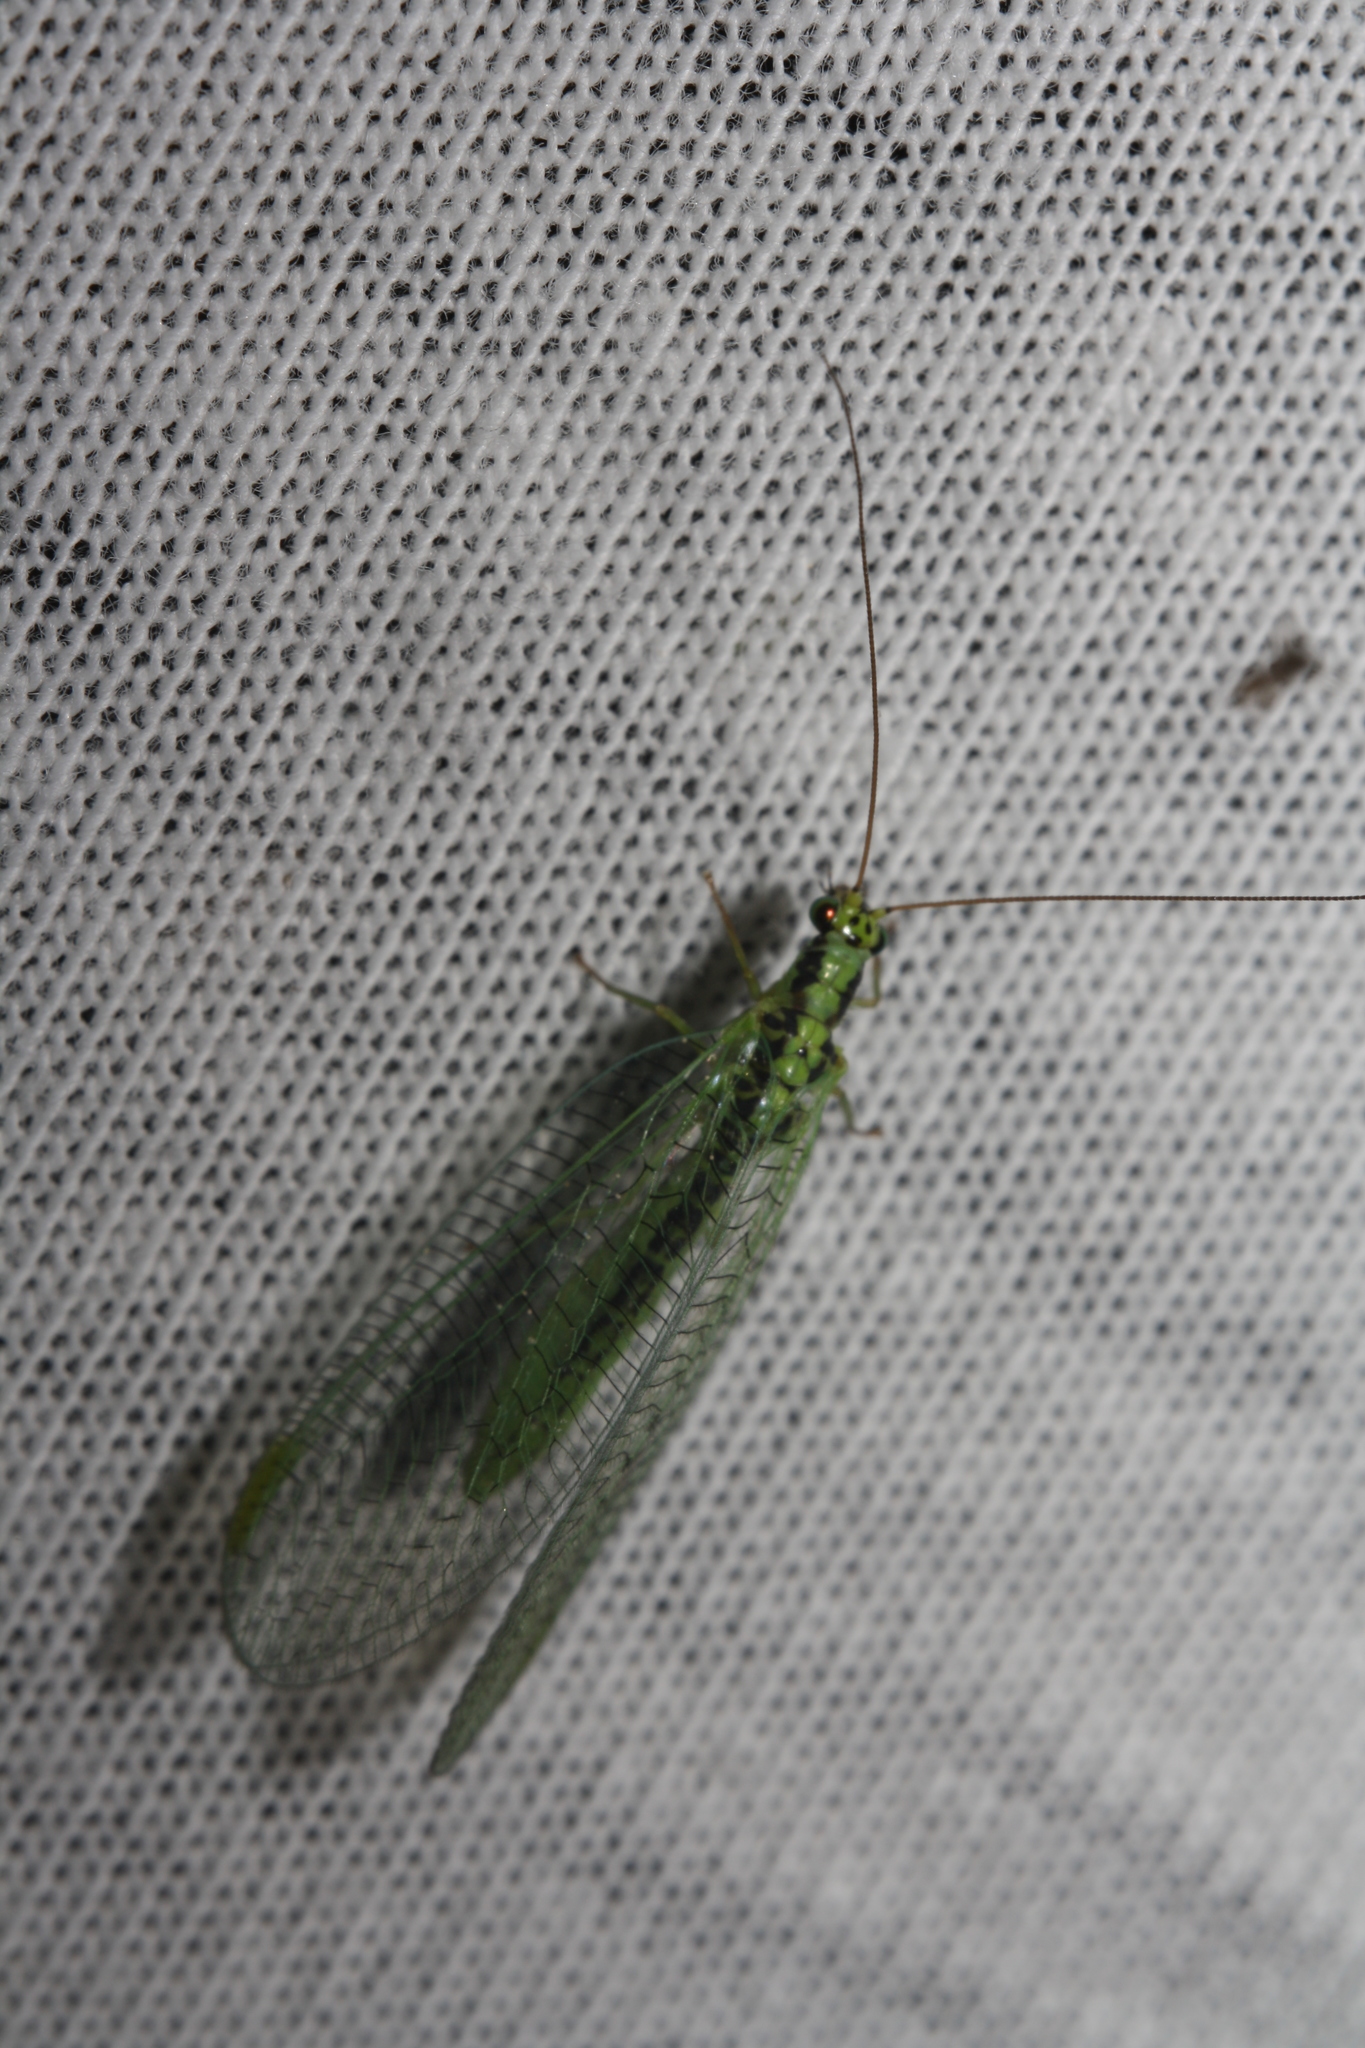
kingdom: Animalia
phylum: Arthropoda
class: Insecta
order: Neuroptera
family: Chrysopidae
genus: Chrysopa
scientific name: Chrysopa walkeri
